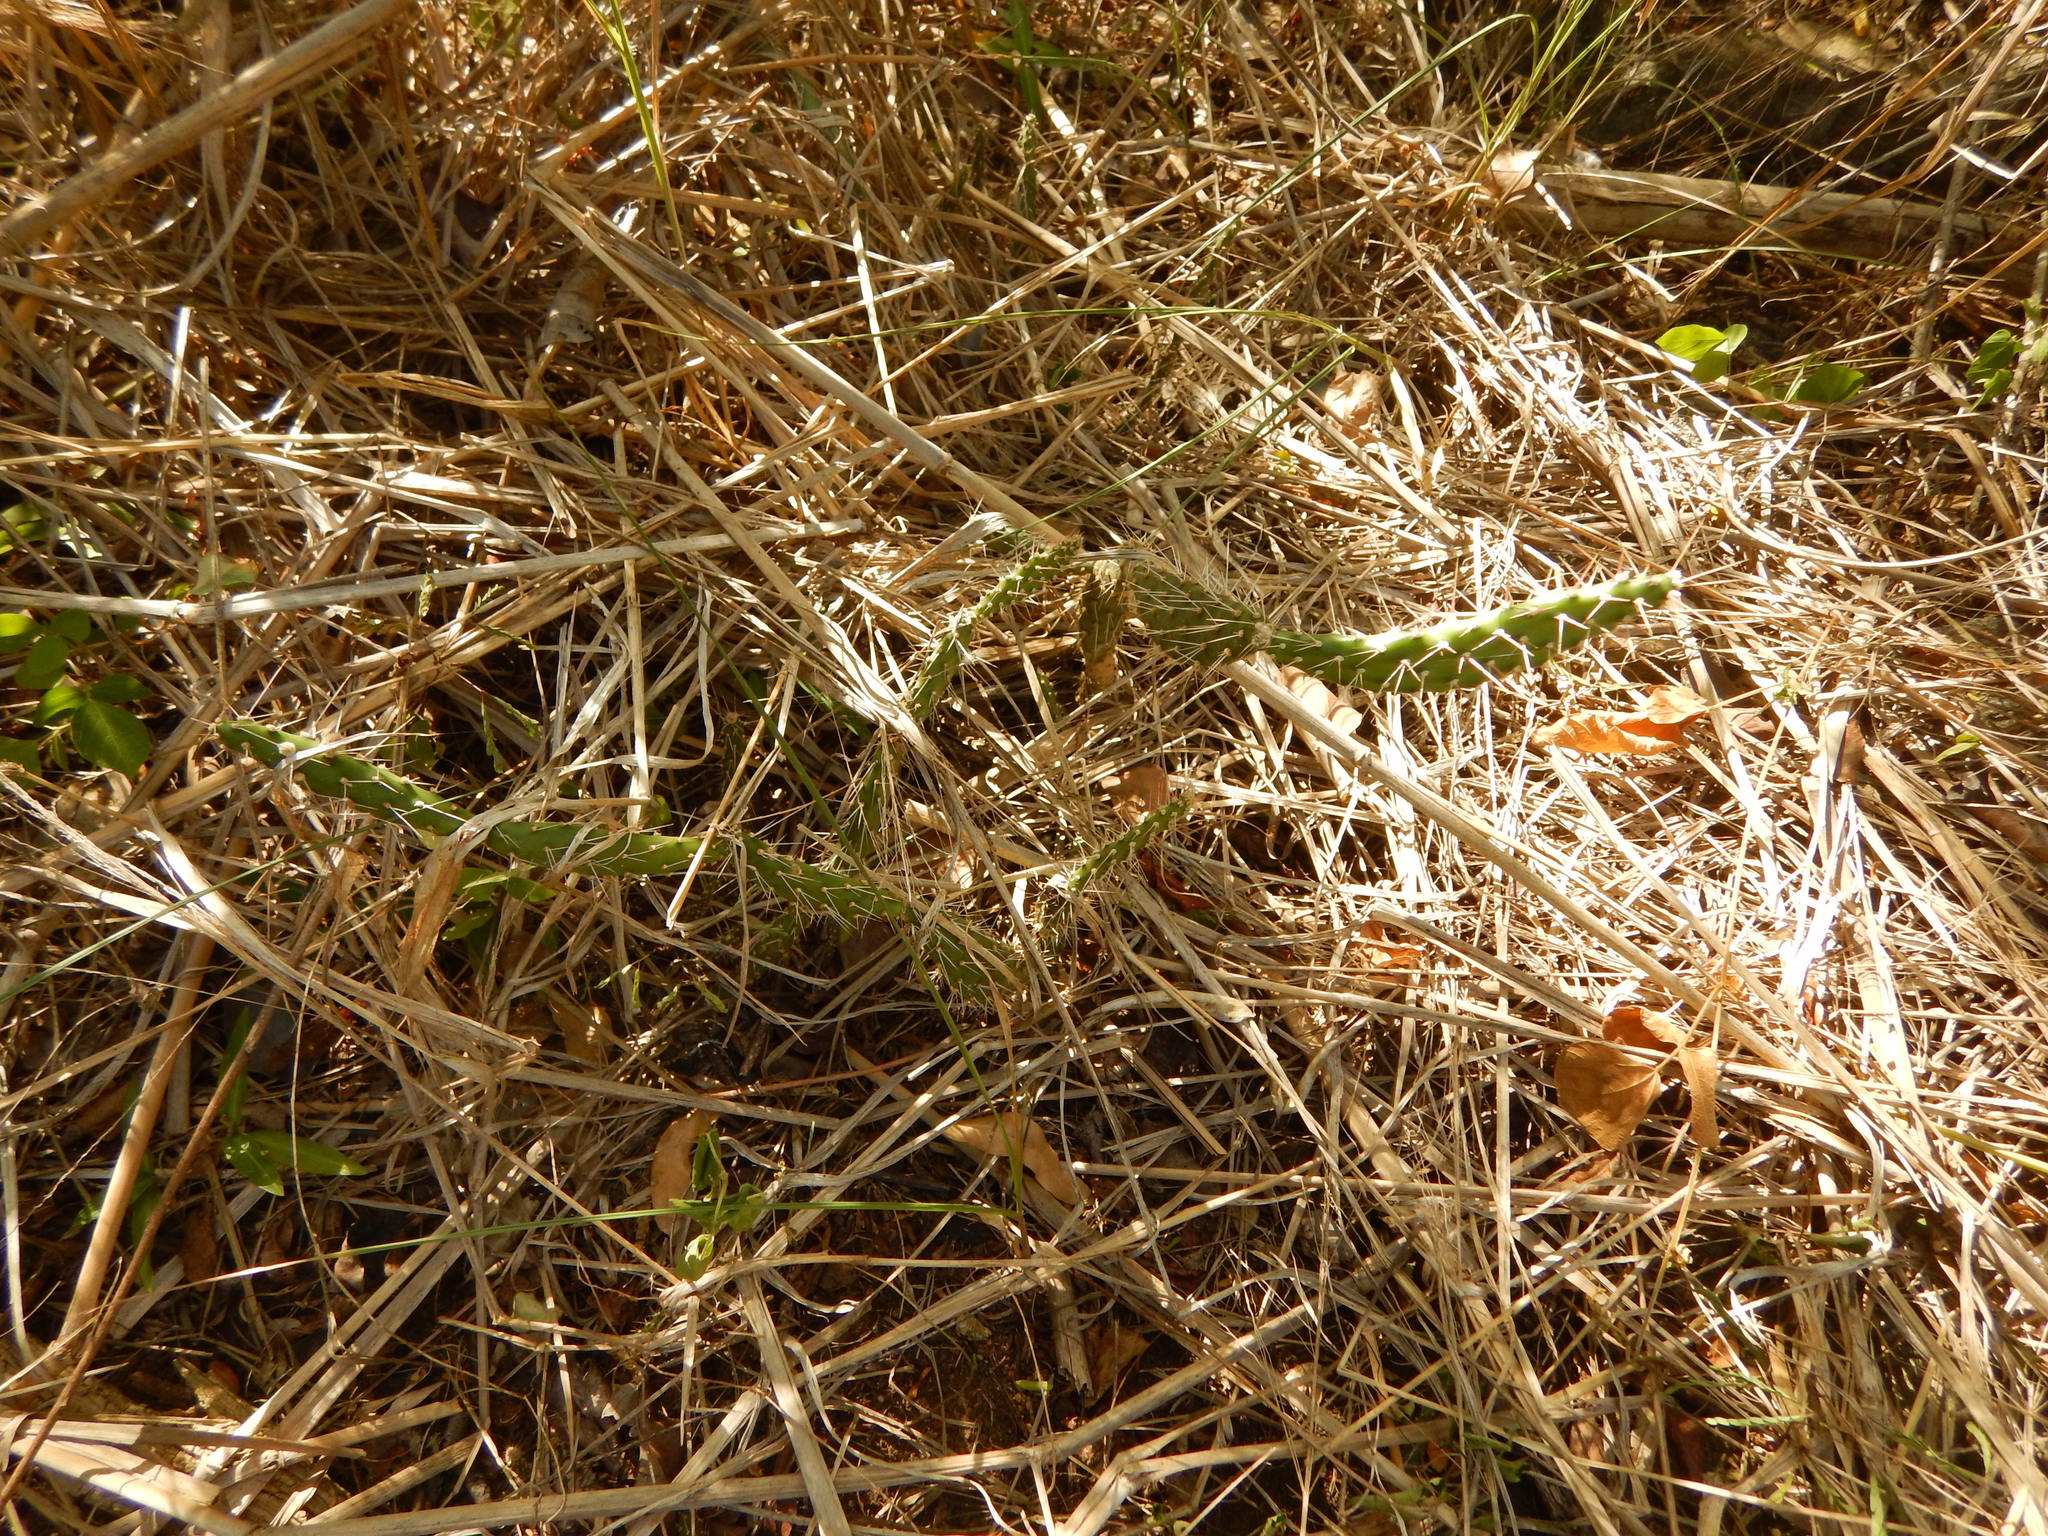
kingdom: Plantae
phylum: Tracheophyta
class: Magnoliopsida
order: Caryophyllales
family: Cactaceae
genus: Opuntia
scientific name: Opuntia repens
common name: Roving pricklypear
